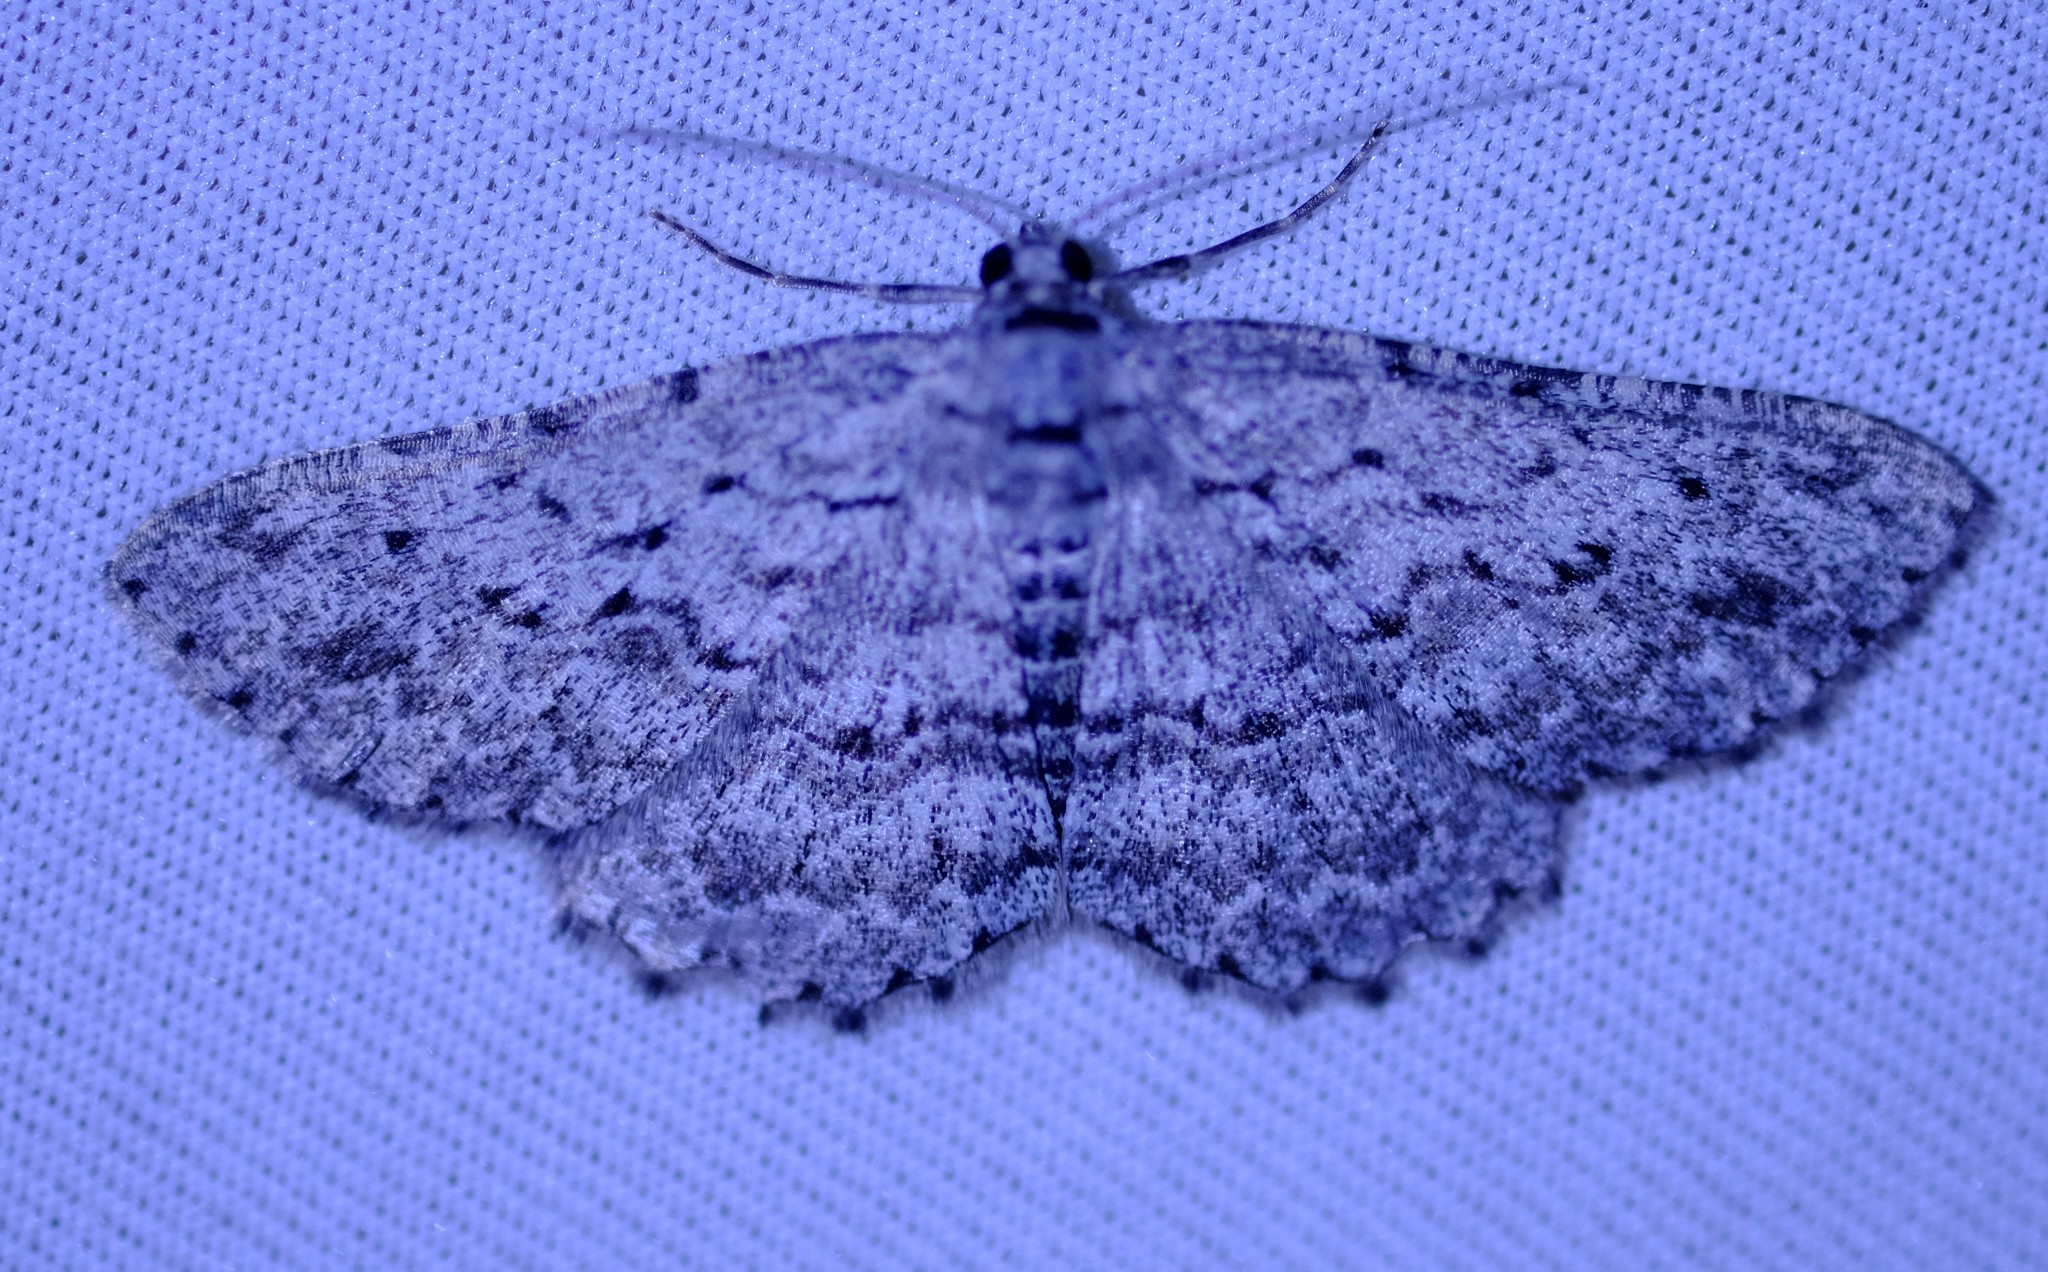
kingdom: Animalia
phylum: Arthropoda
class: Insecta
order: Lepidoptera
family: Geometridae
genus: Psilosticha
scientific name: Psilosticha absorpta
